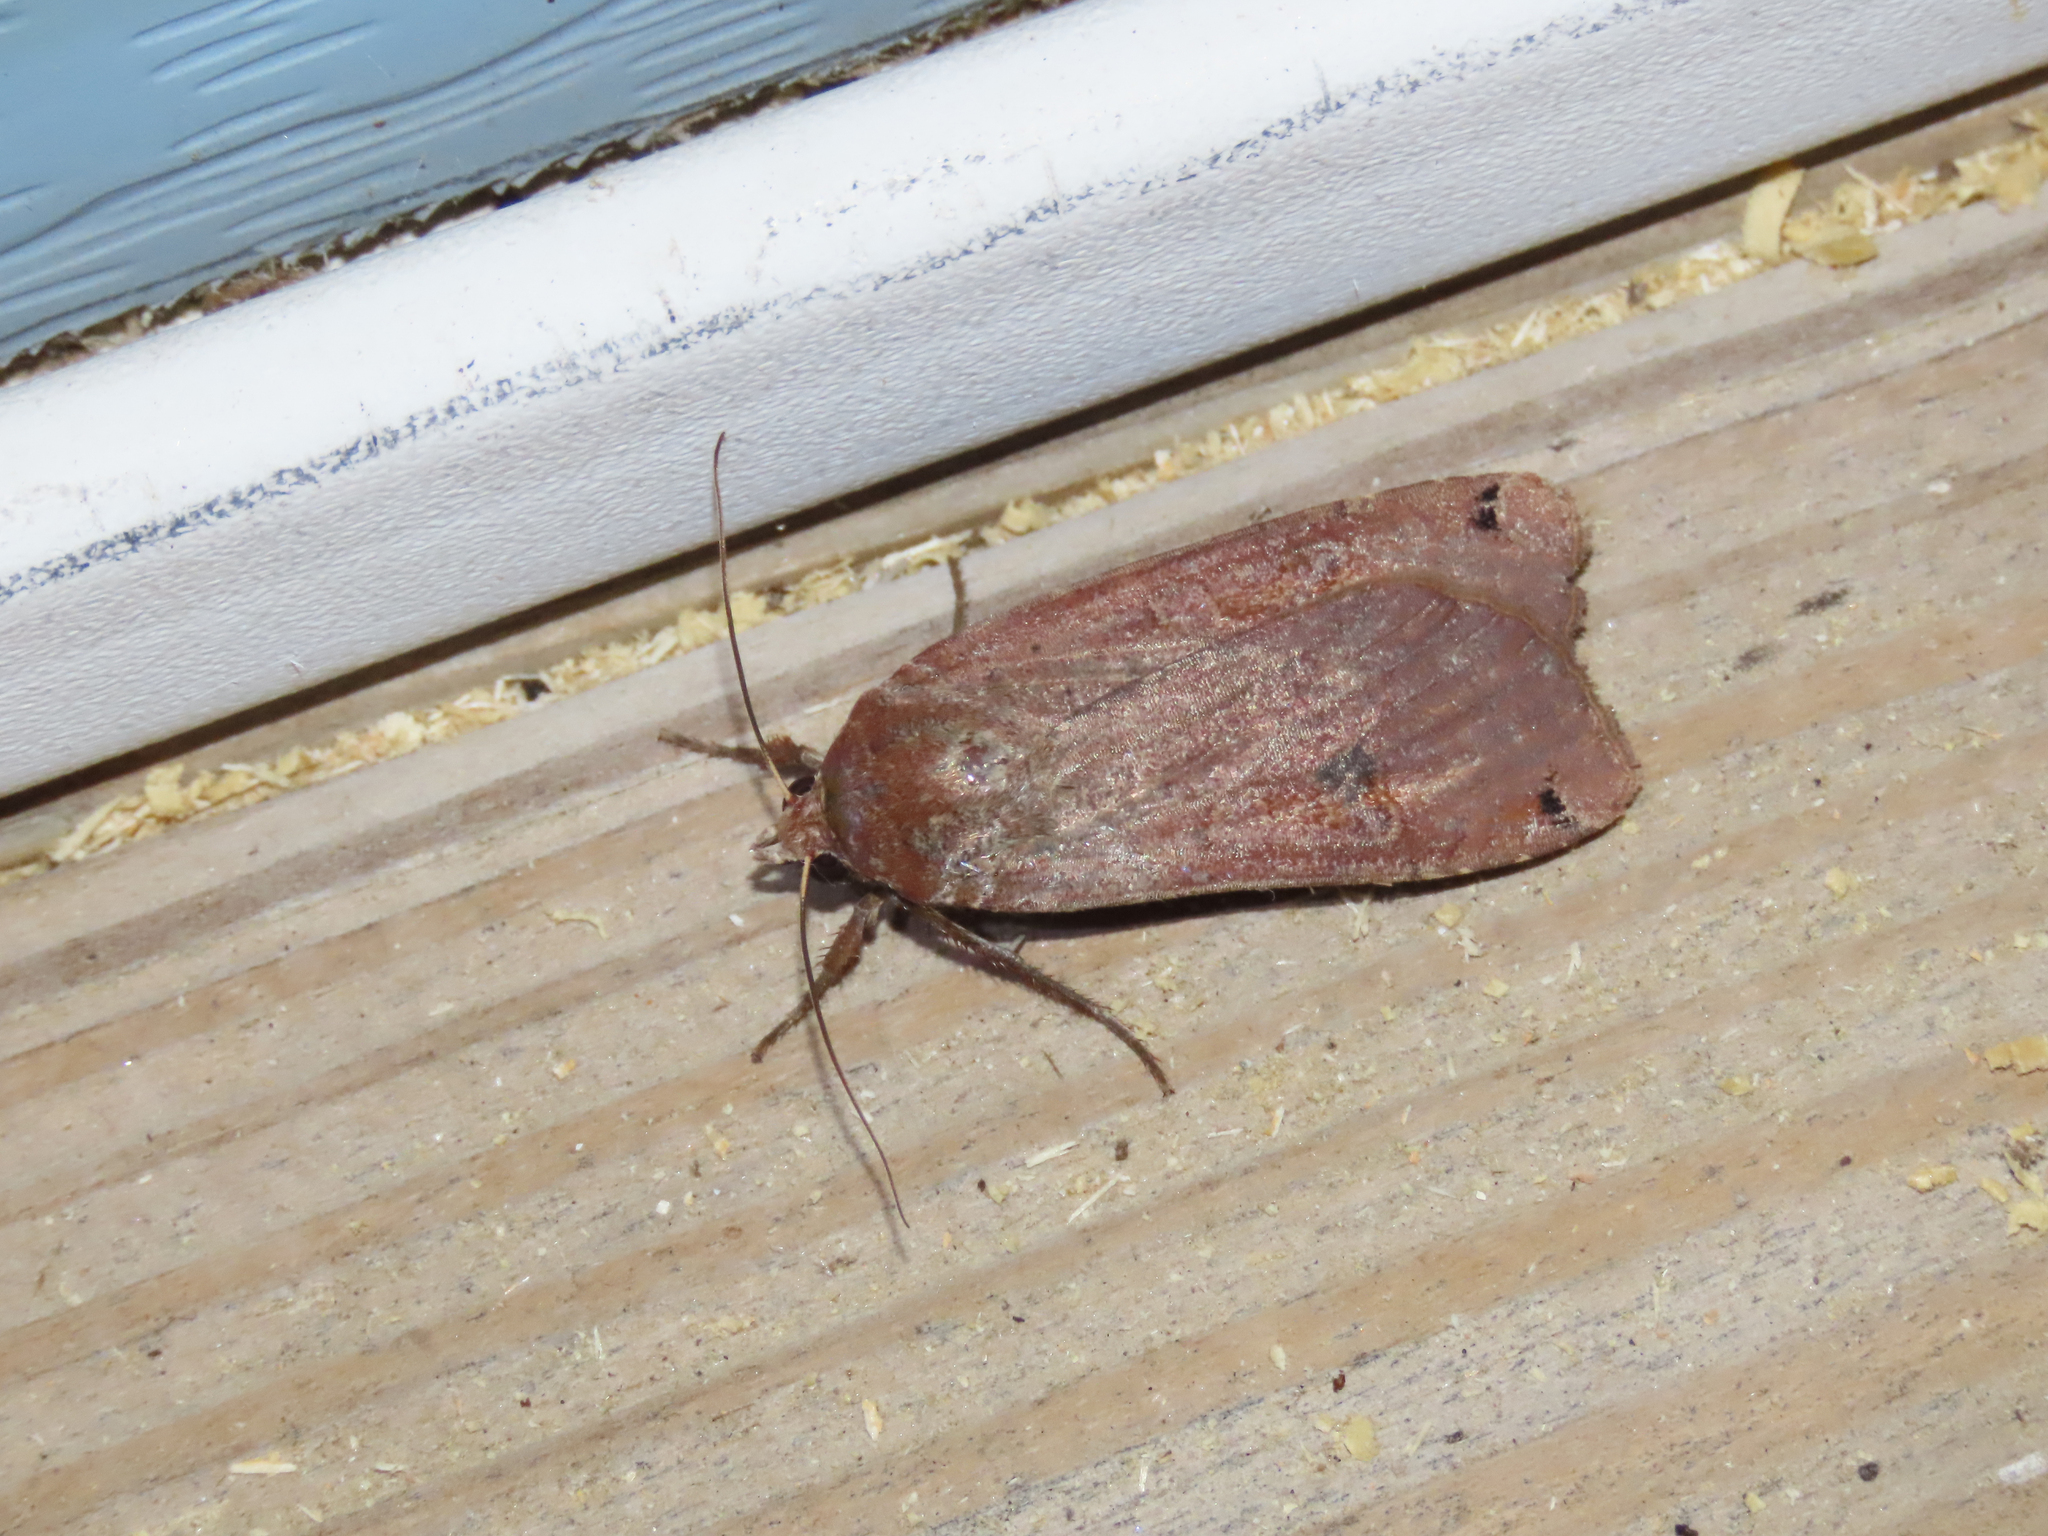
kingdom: Animalia
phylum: Arthropoda
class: Insecta
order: Lepidoptera
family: Noctuidae
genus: Noctua
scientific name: Noctua pronuba
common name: Large yellow underwing
